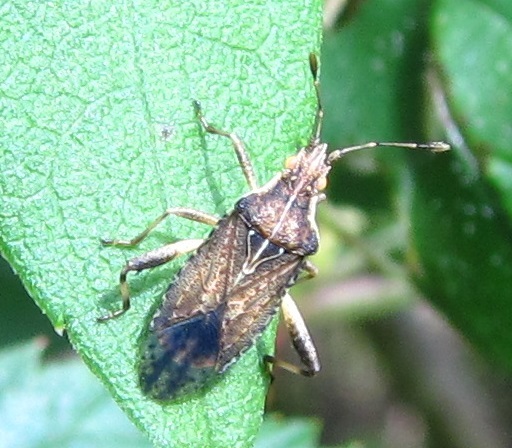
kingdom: Animalia
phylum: Arthropoda
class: Insecta
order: Hemiptera
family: Rhopalidae
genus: Harmostes
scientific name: Harmostes fraterculus
